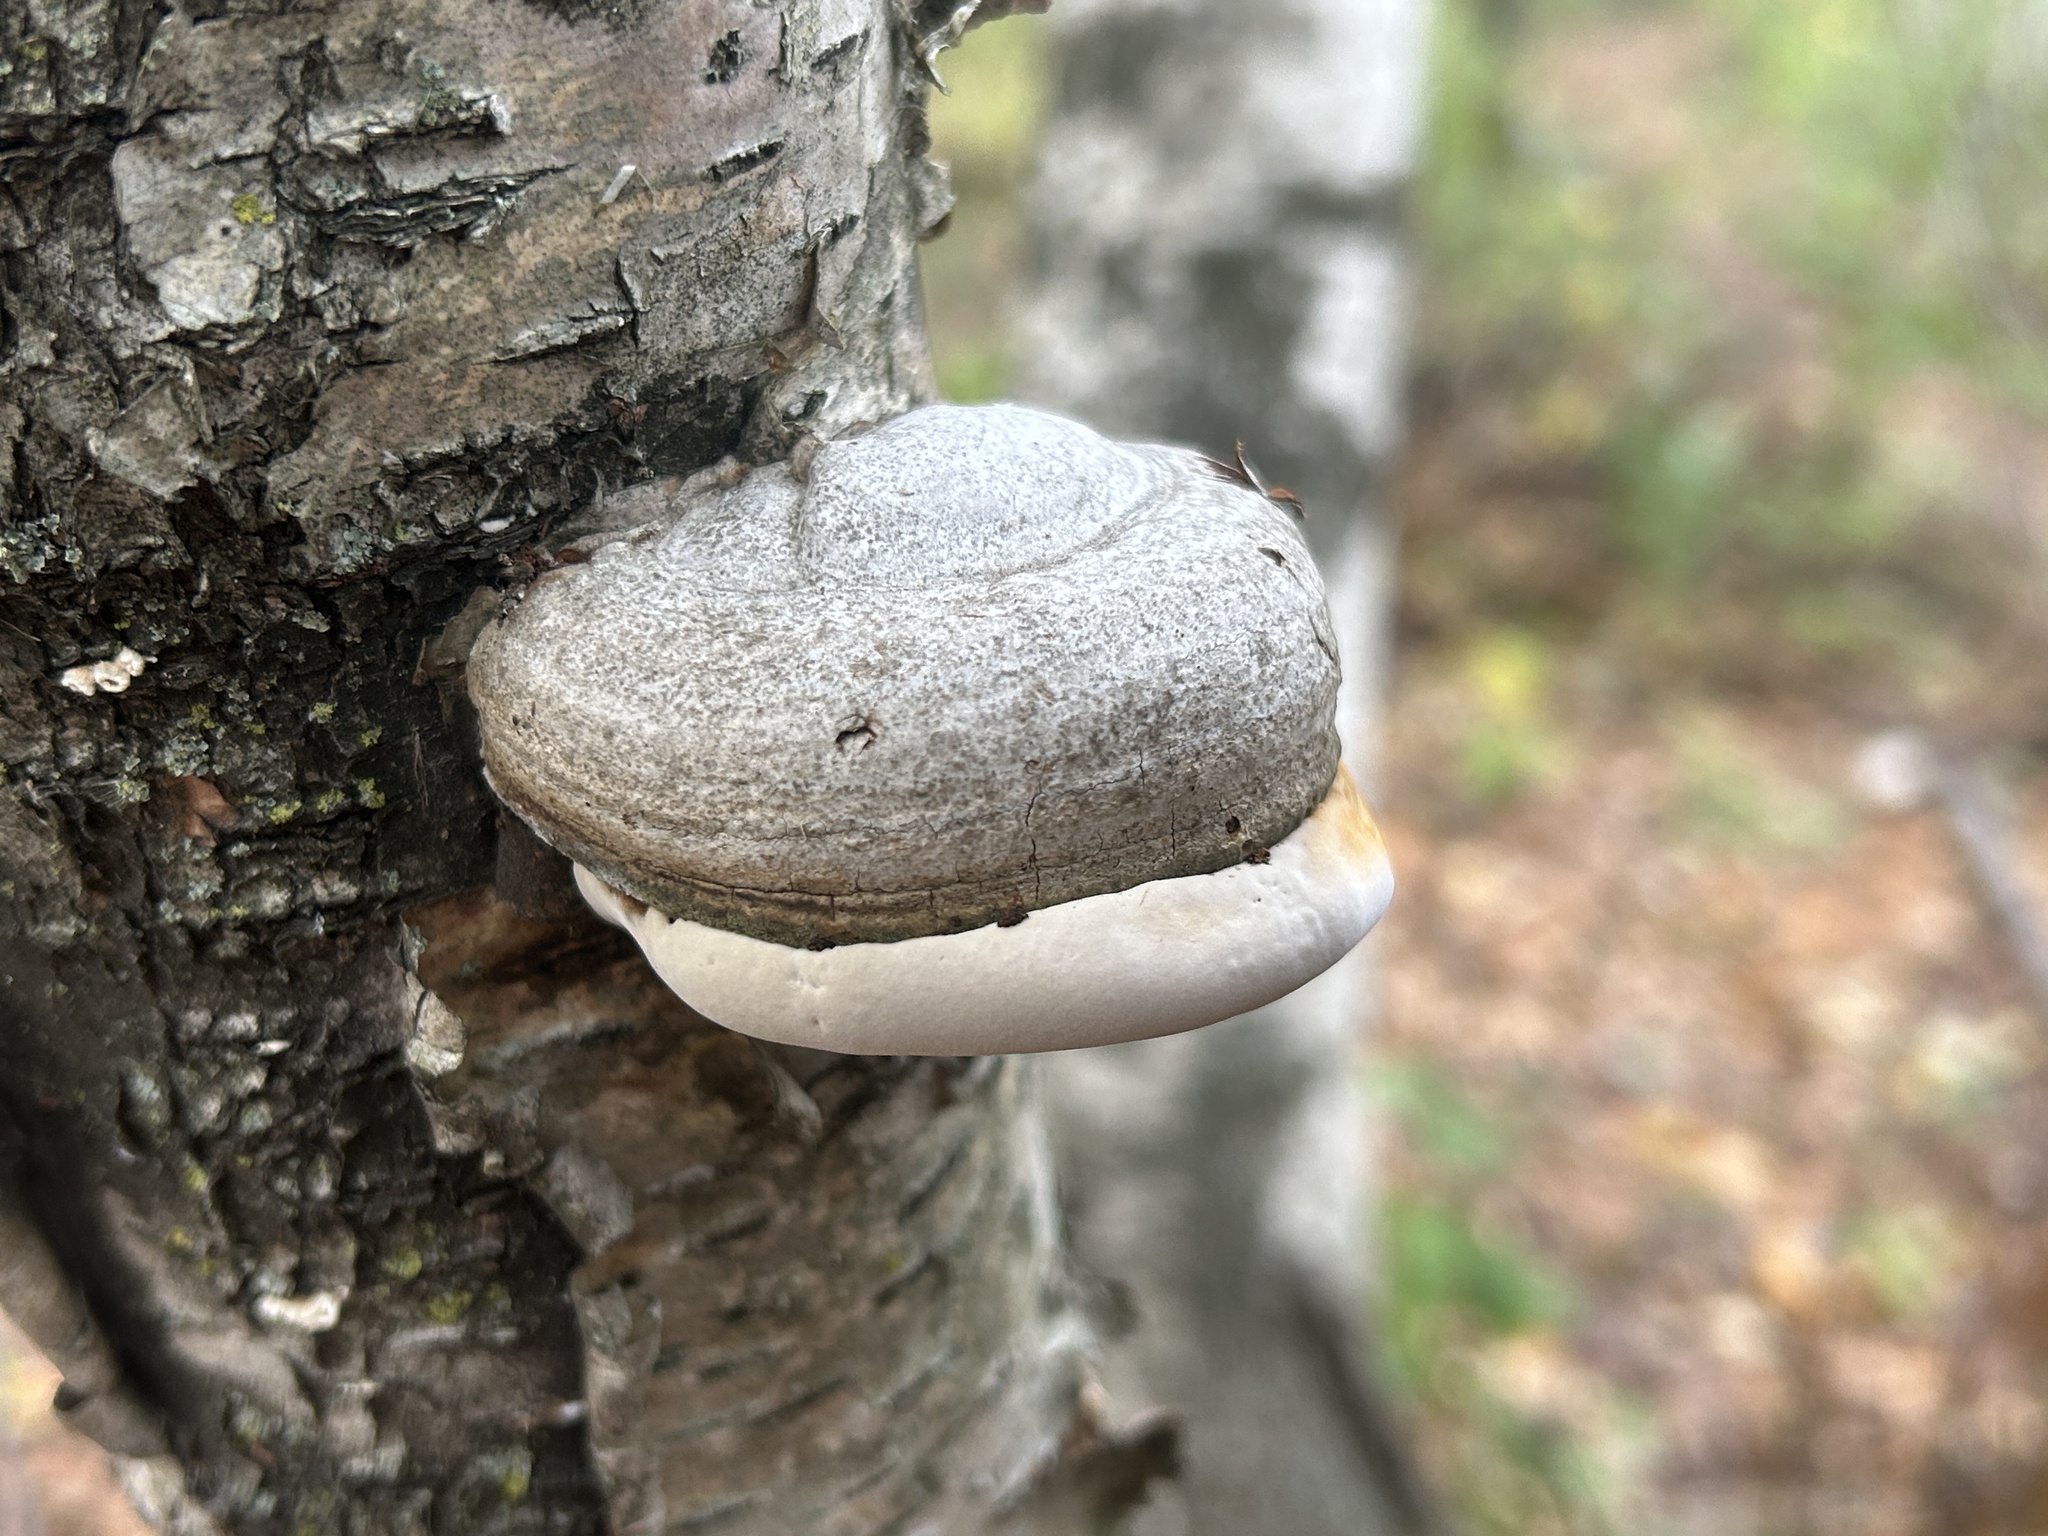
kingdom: Fungi
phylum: Basidiomycota
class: Agaricomycetes
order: Polyporales
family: Polyporaceae
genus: Fomes
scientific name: Fomes fomentarius
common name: Hoof fungus
